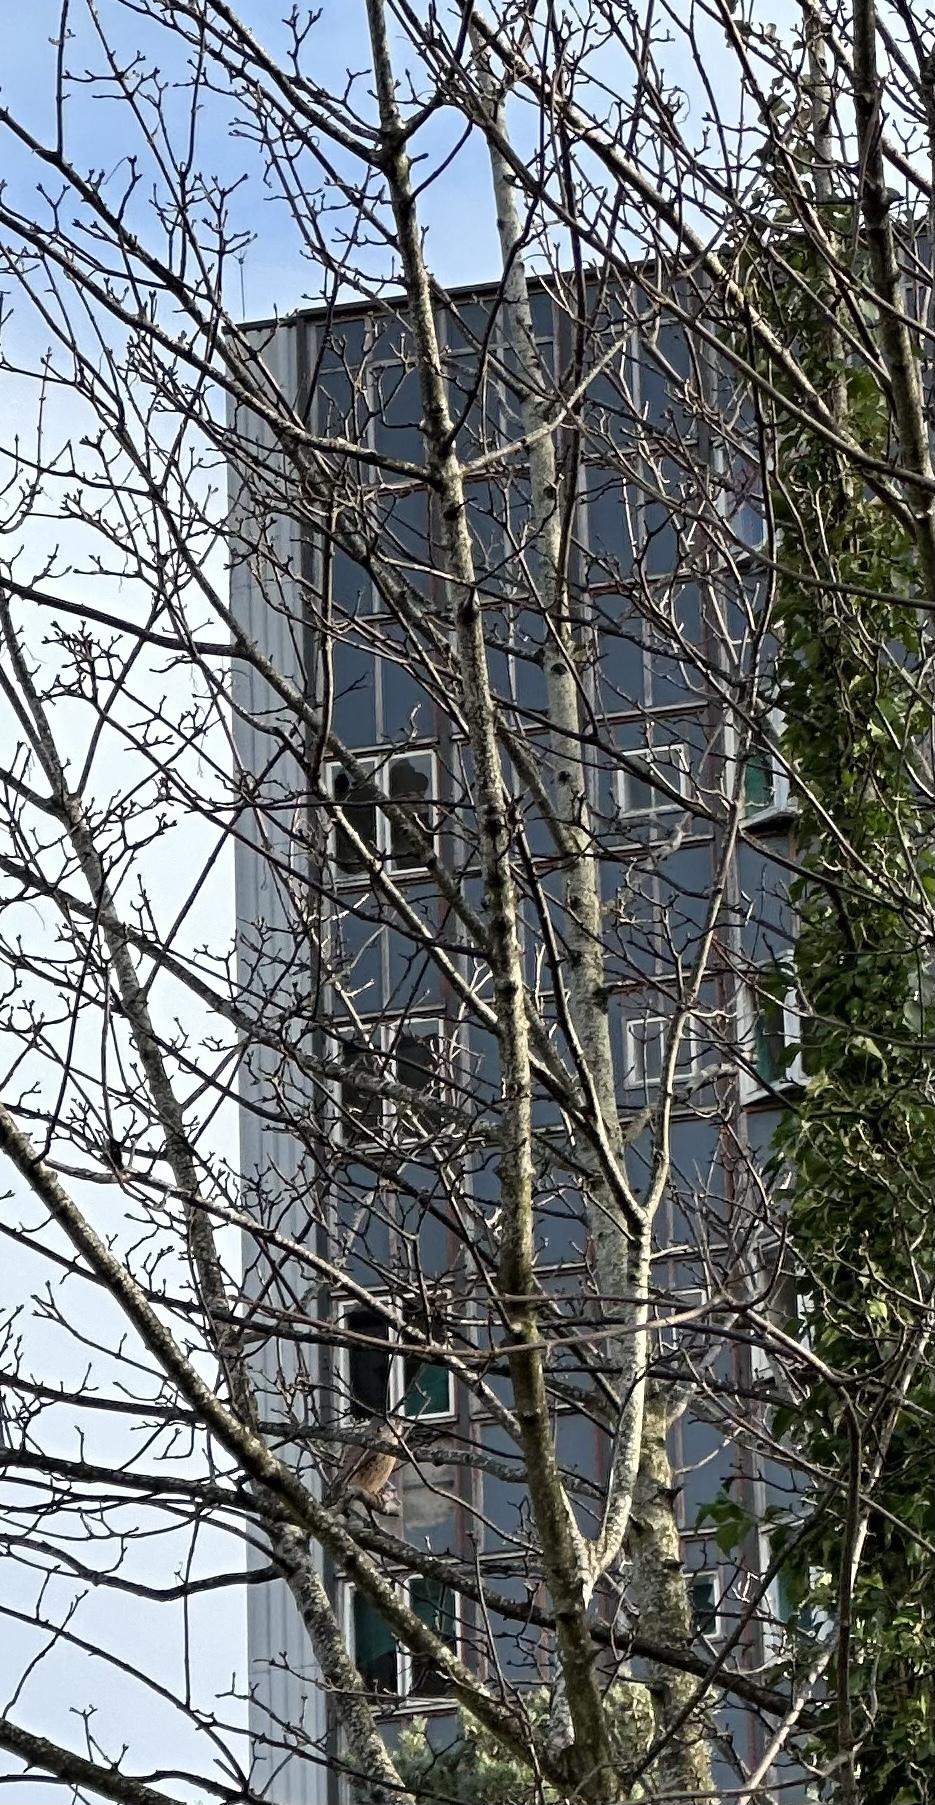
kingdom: Animalia
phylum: Chordata
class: Aves
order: Falconiformes
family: Falconidae
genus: Falco
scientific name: Falco tinnunculus
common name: Common kestrel
